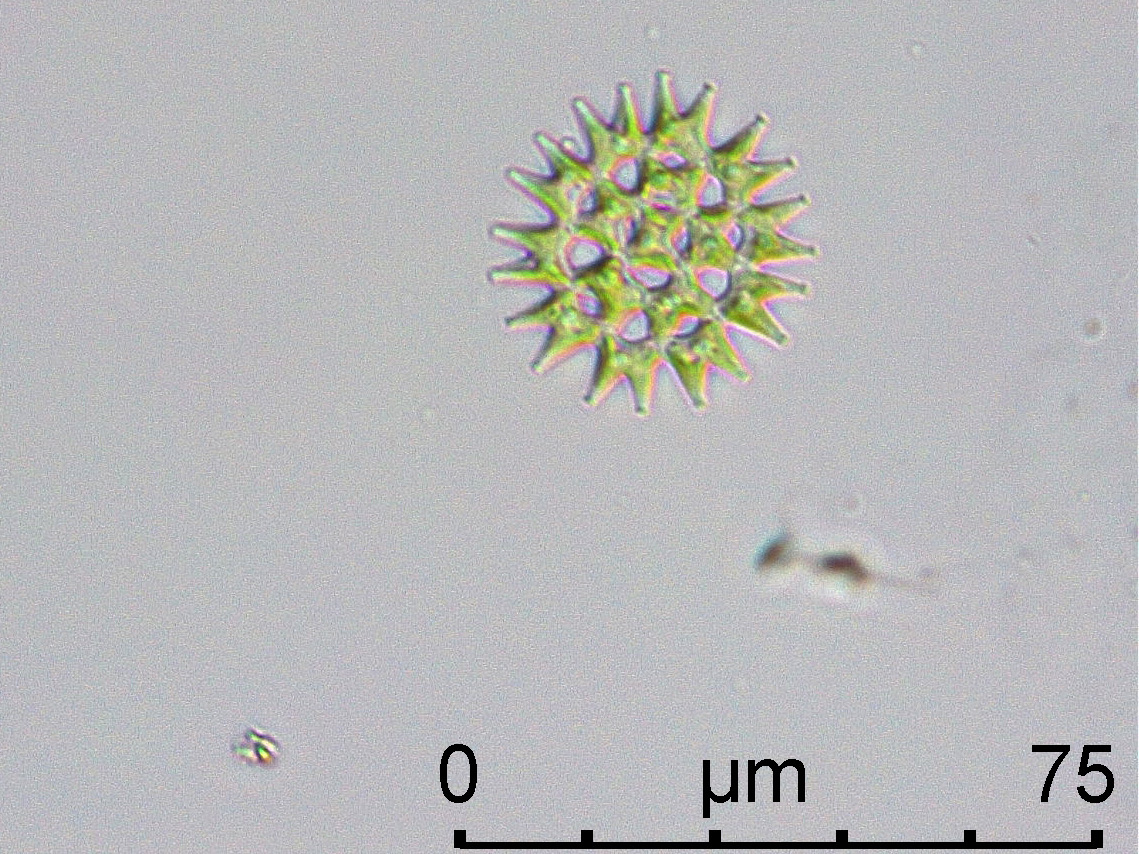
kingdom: Plantae
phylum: Chlorophyta
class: Chlorophyceae
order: Sphaeropleales
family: Hydrodictyaceae
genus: Pediastrum
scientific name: Pediastrum duplex
